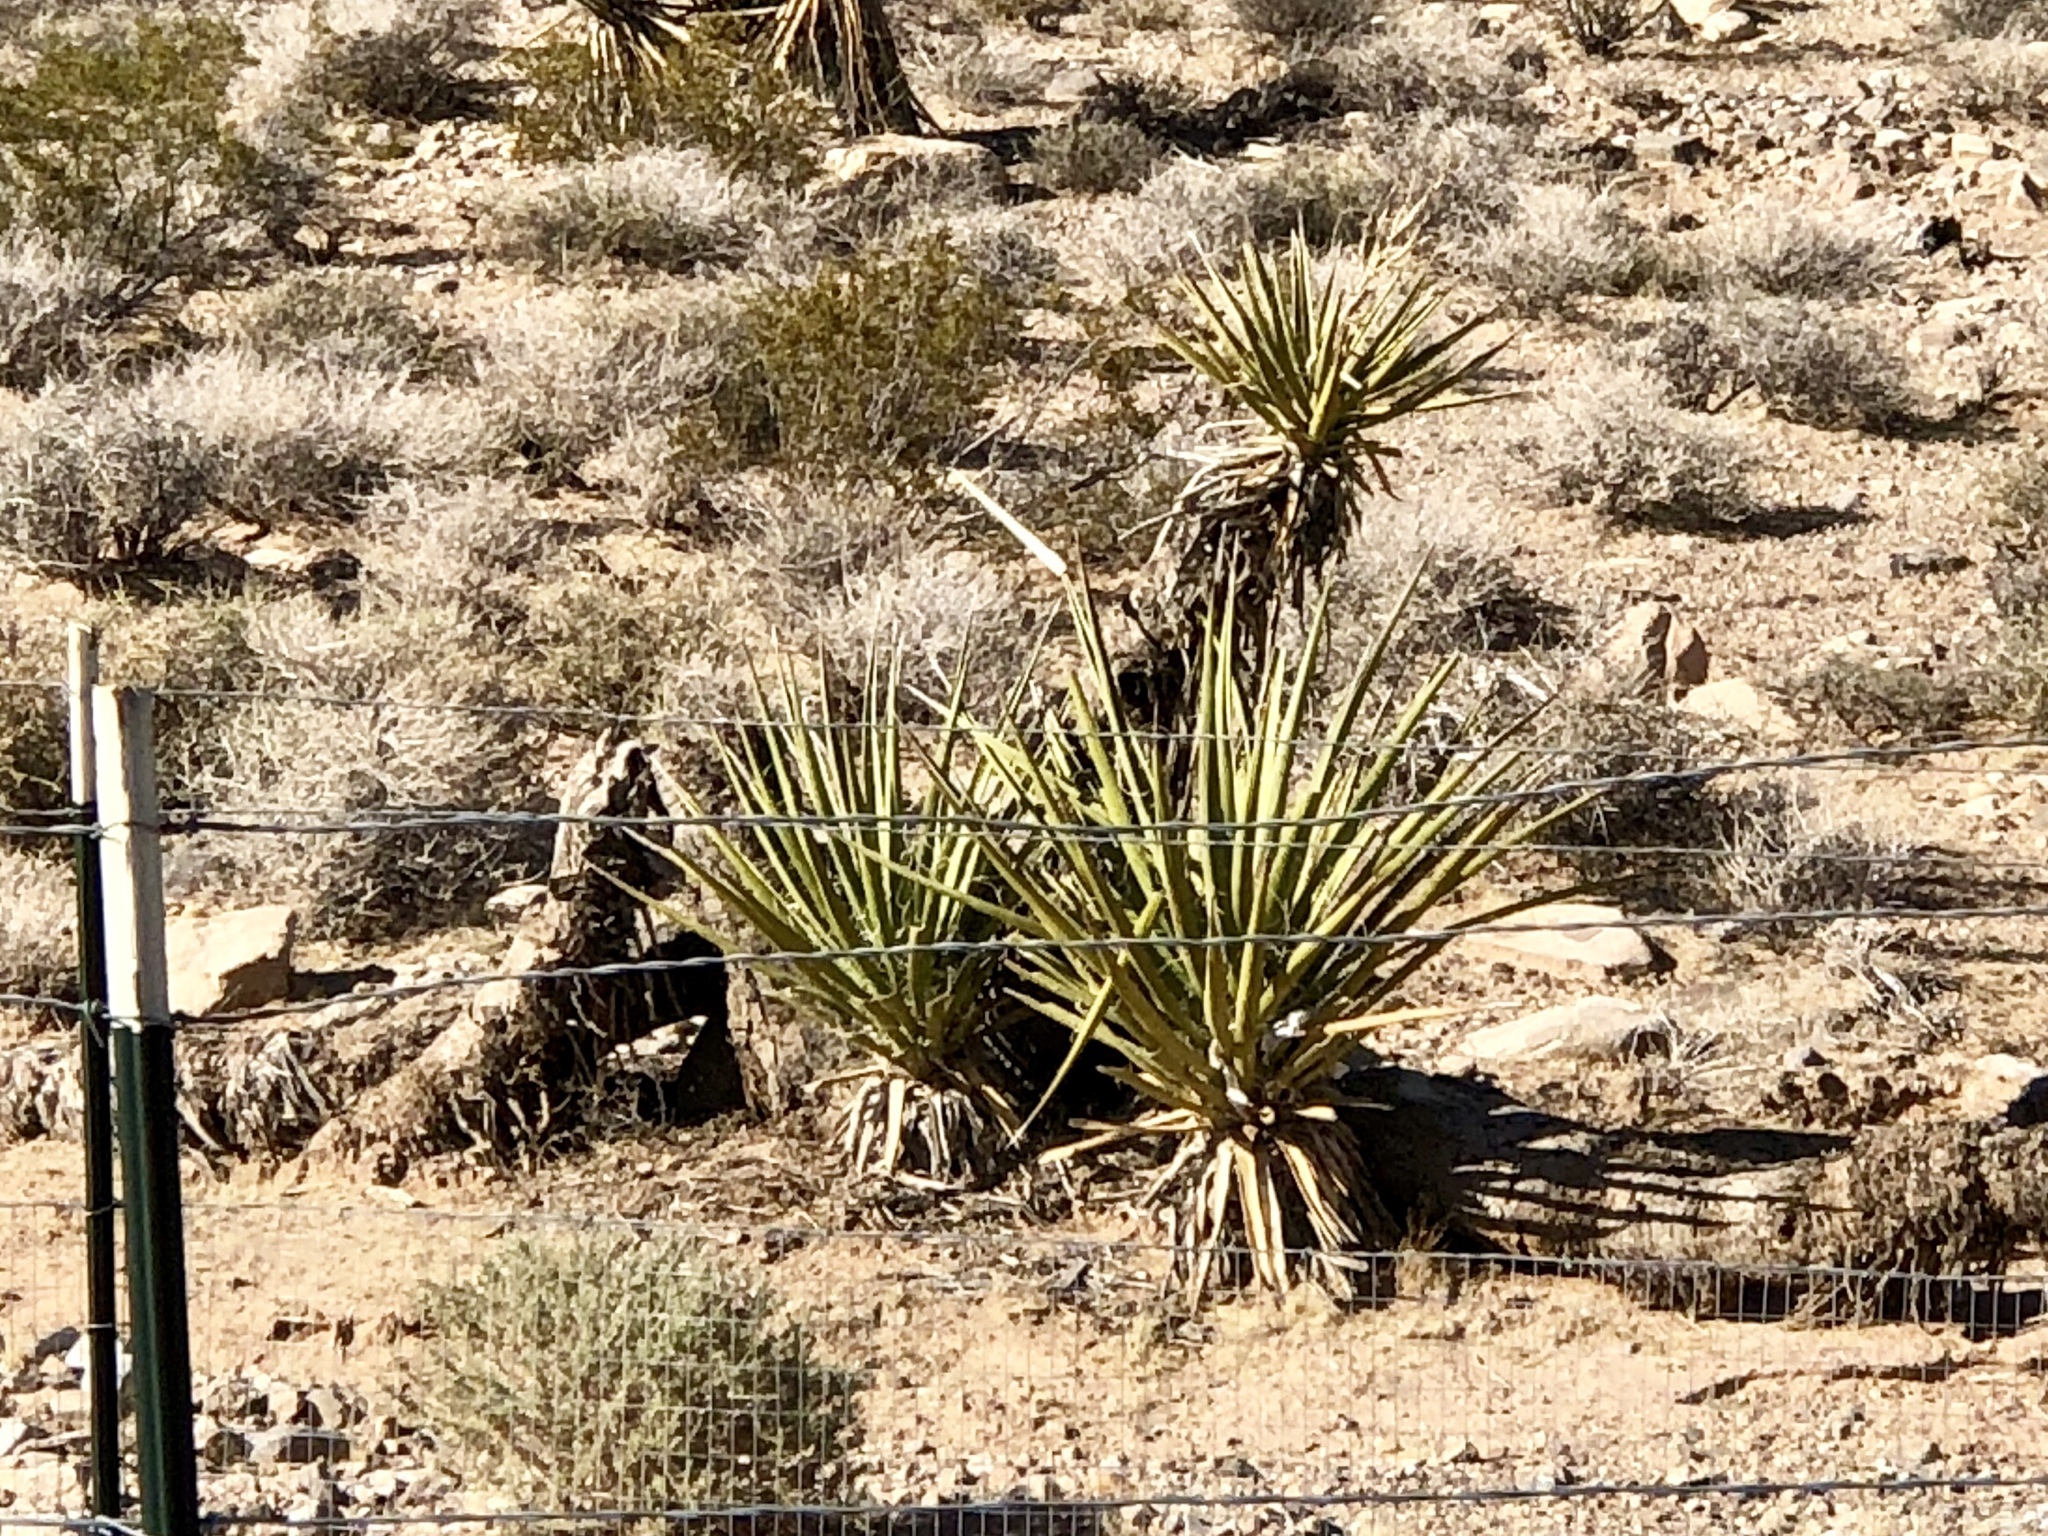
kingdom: Plantae
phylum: Tracheophyta
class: Liliopsida
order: Asparagales
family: Asparagaceae
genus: Yucca
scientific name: Yucca schidigera
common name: Mojave yucca
